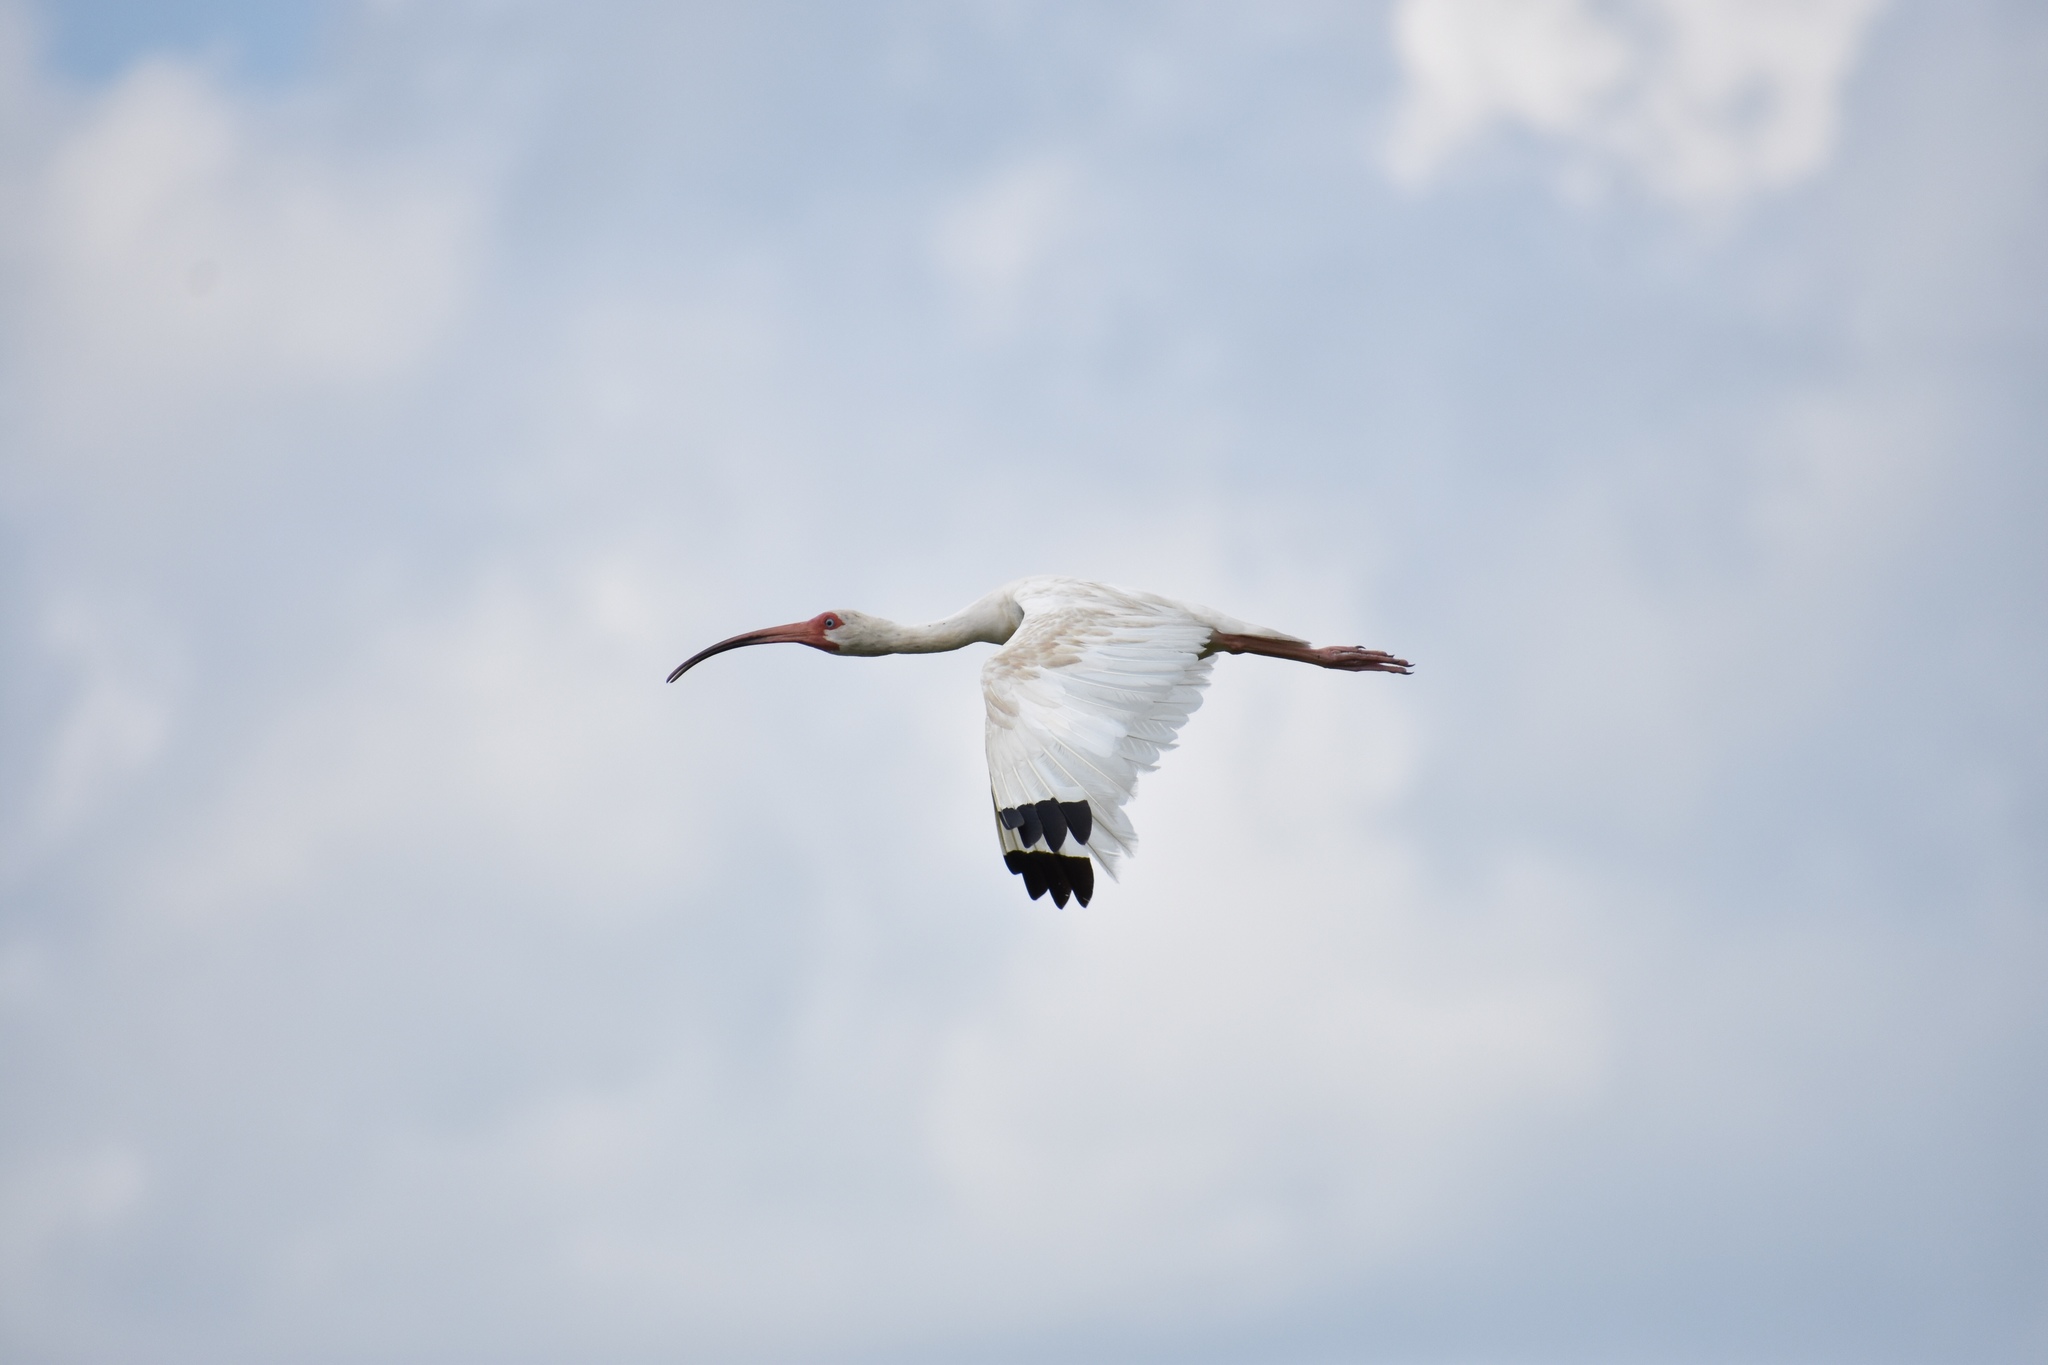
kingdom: Animalia
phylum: Chordata
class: Aves
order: Pelecaniformes
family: Threskiornithidae
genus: Eudocimus
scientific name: Eudocimus albus
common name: White ibis
